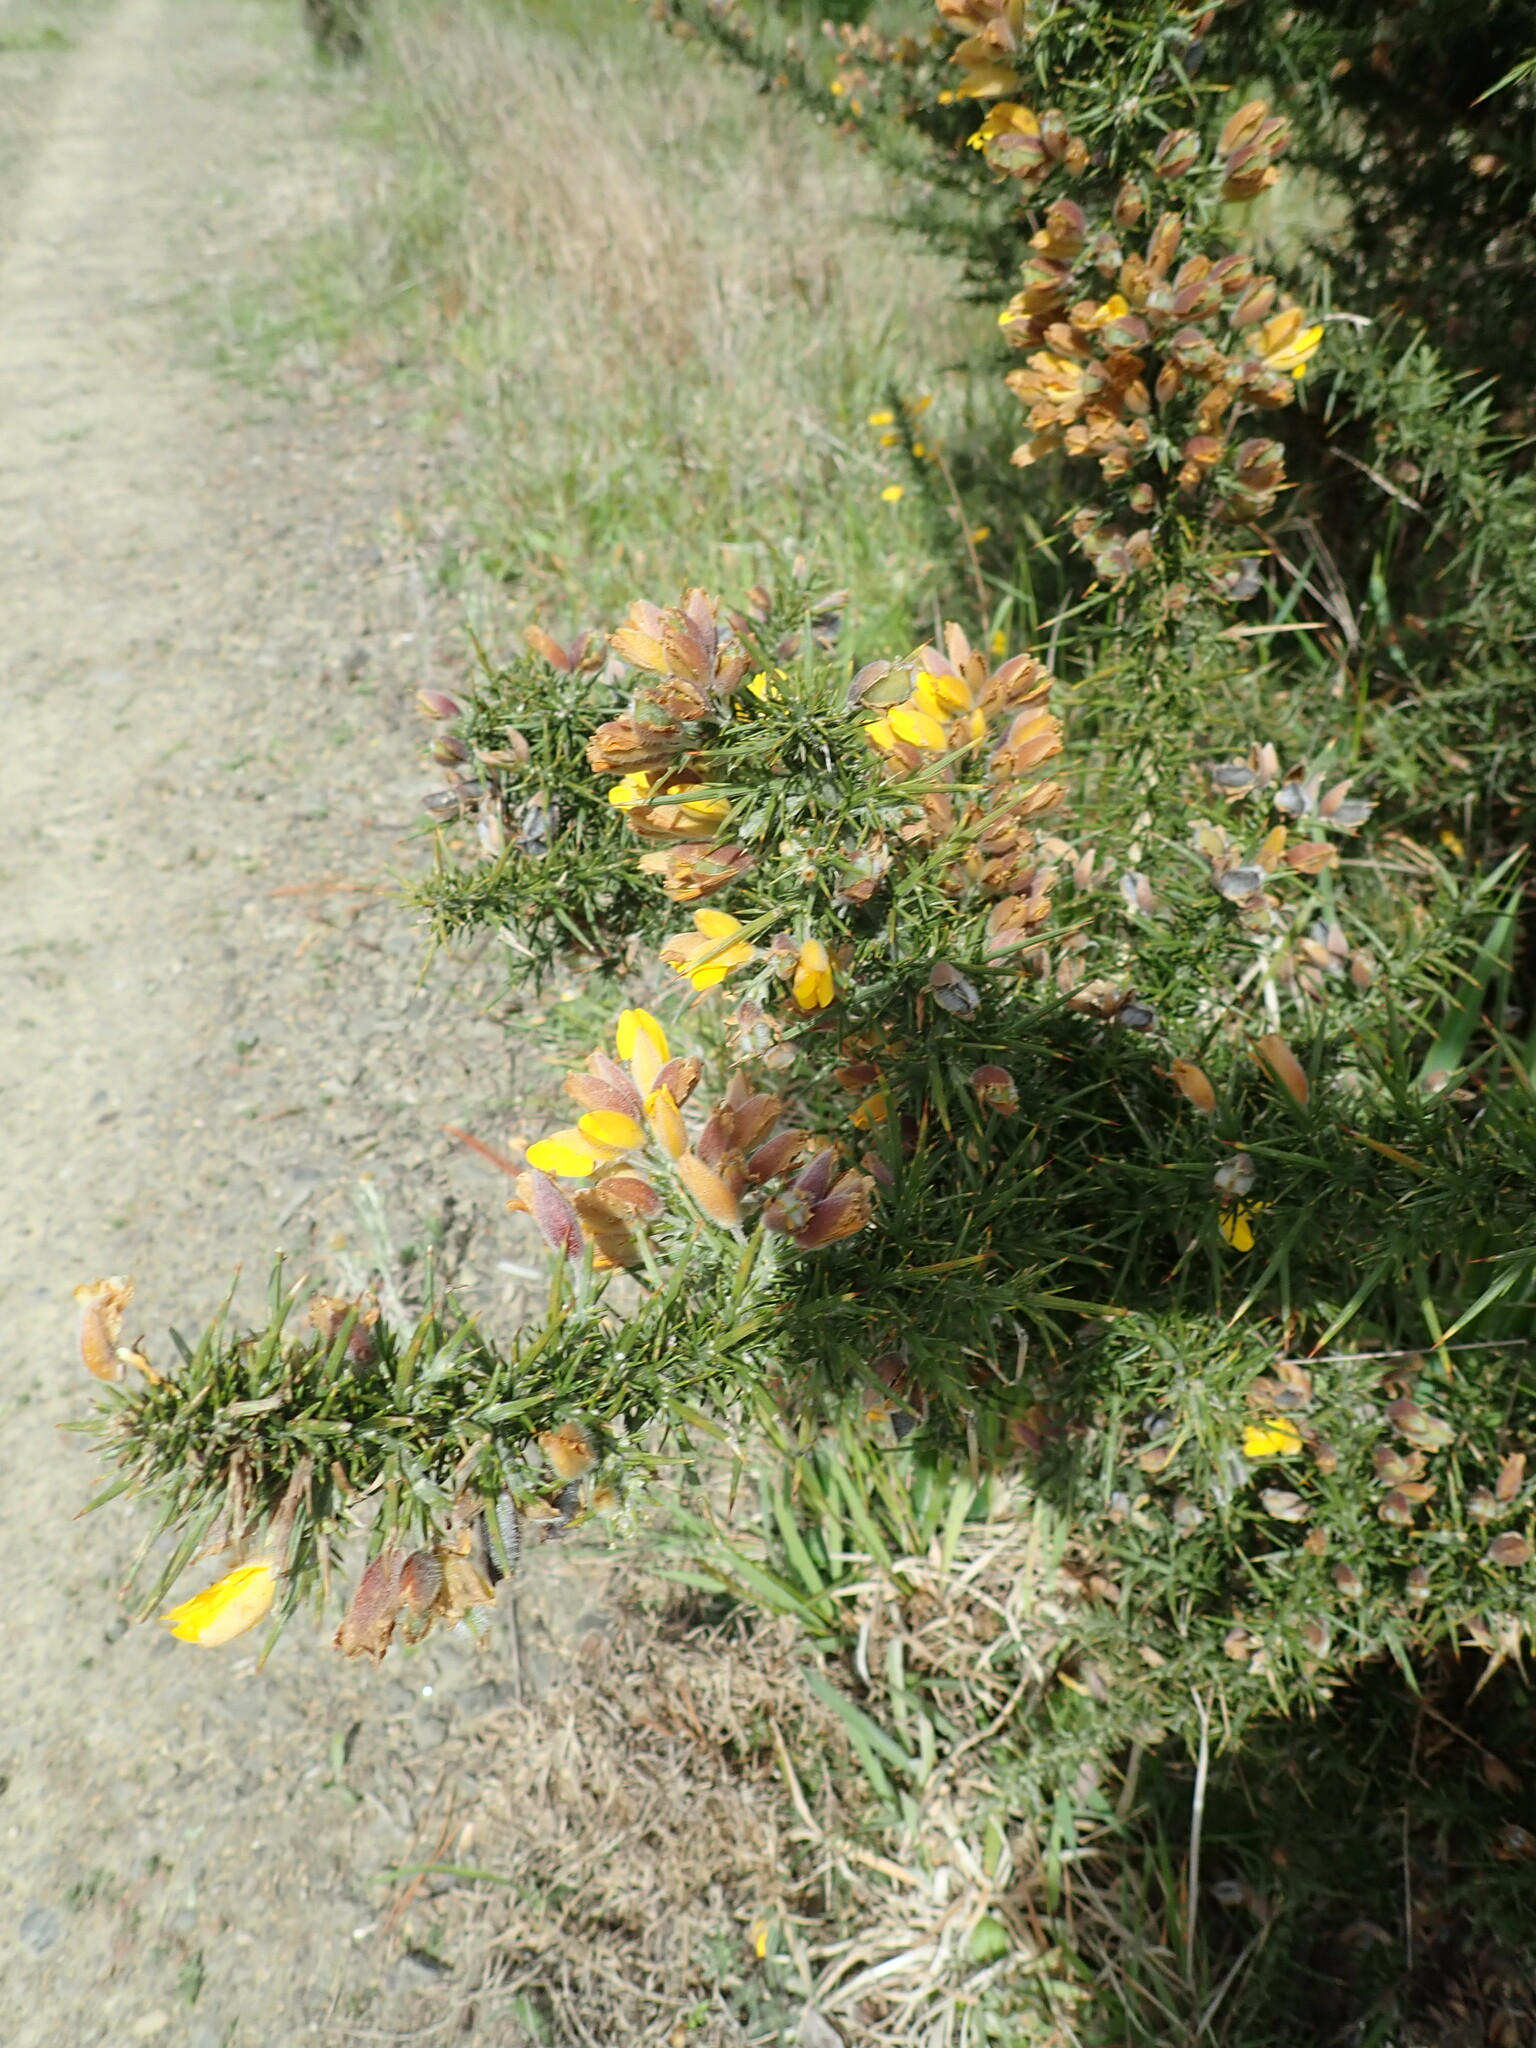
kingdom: Plantae
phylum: Tracheophyta
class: Magnoliopsida
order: Fabales
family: Fabaceae
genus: Ulex
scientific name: Ulex europaeus
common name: Common gorse
